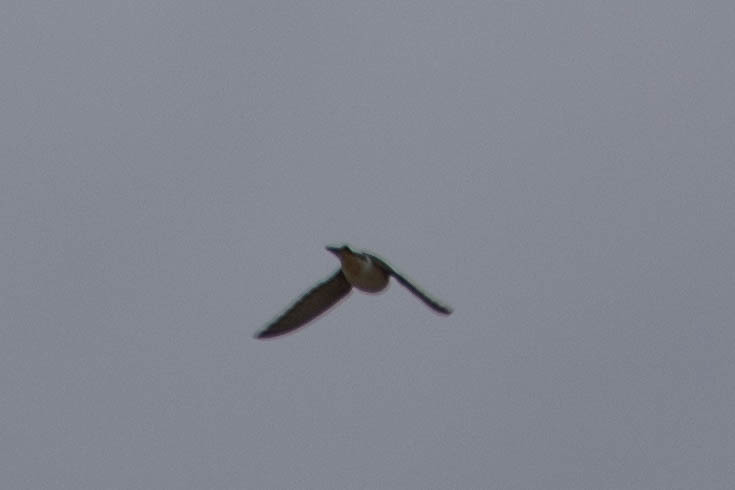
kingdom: Animalia
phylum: Chordata
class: Aves
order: Passeriformes
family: Hirundinidae
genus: Tachycineta
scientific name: Tachycineta thalassina
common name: Violet-green swallow
